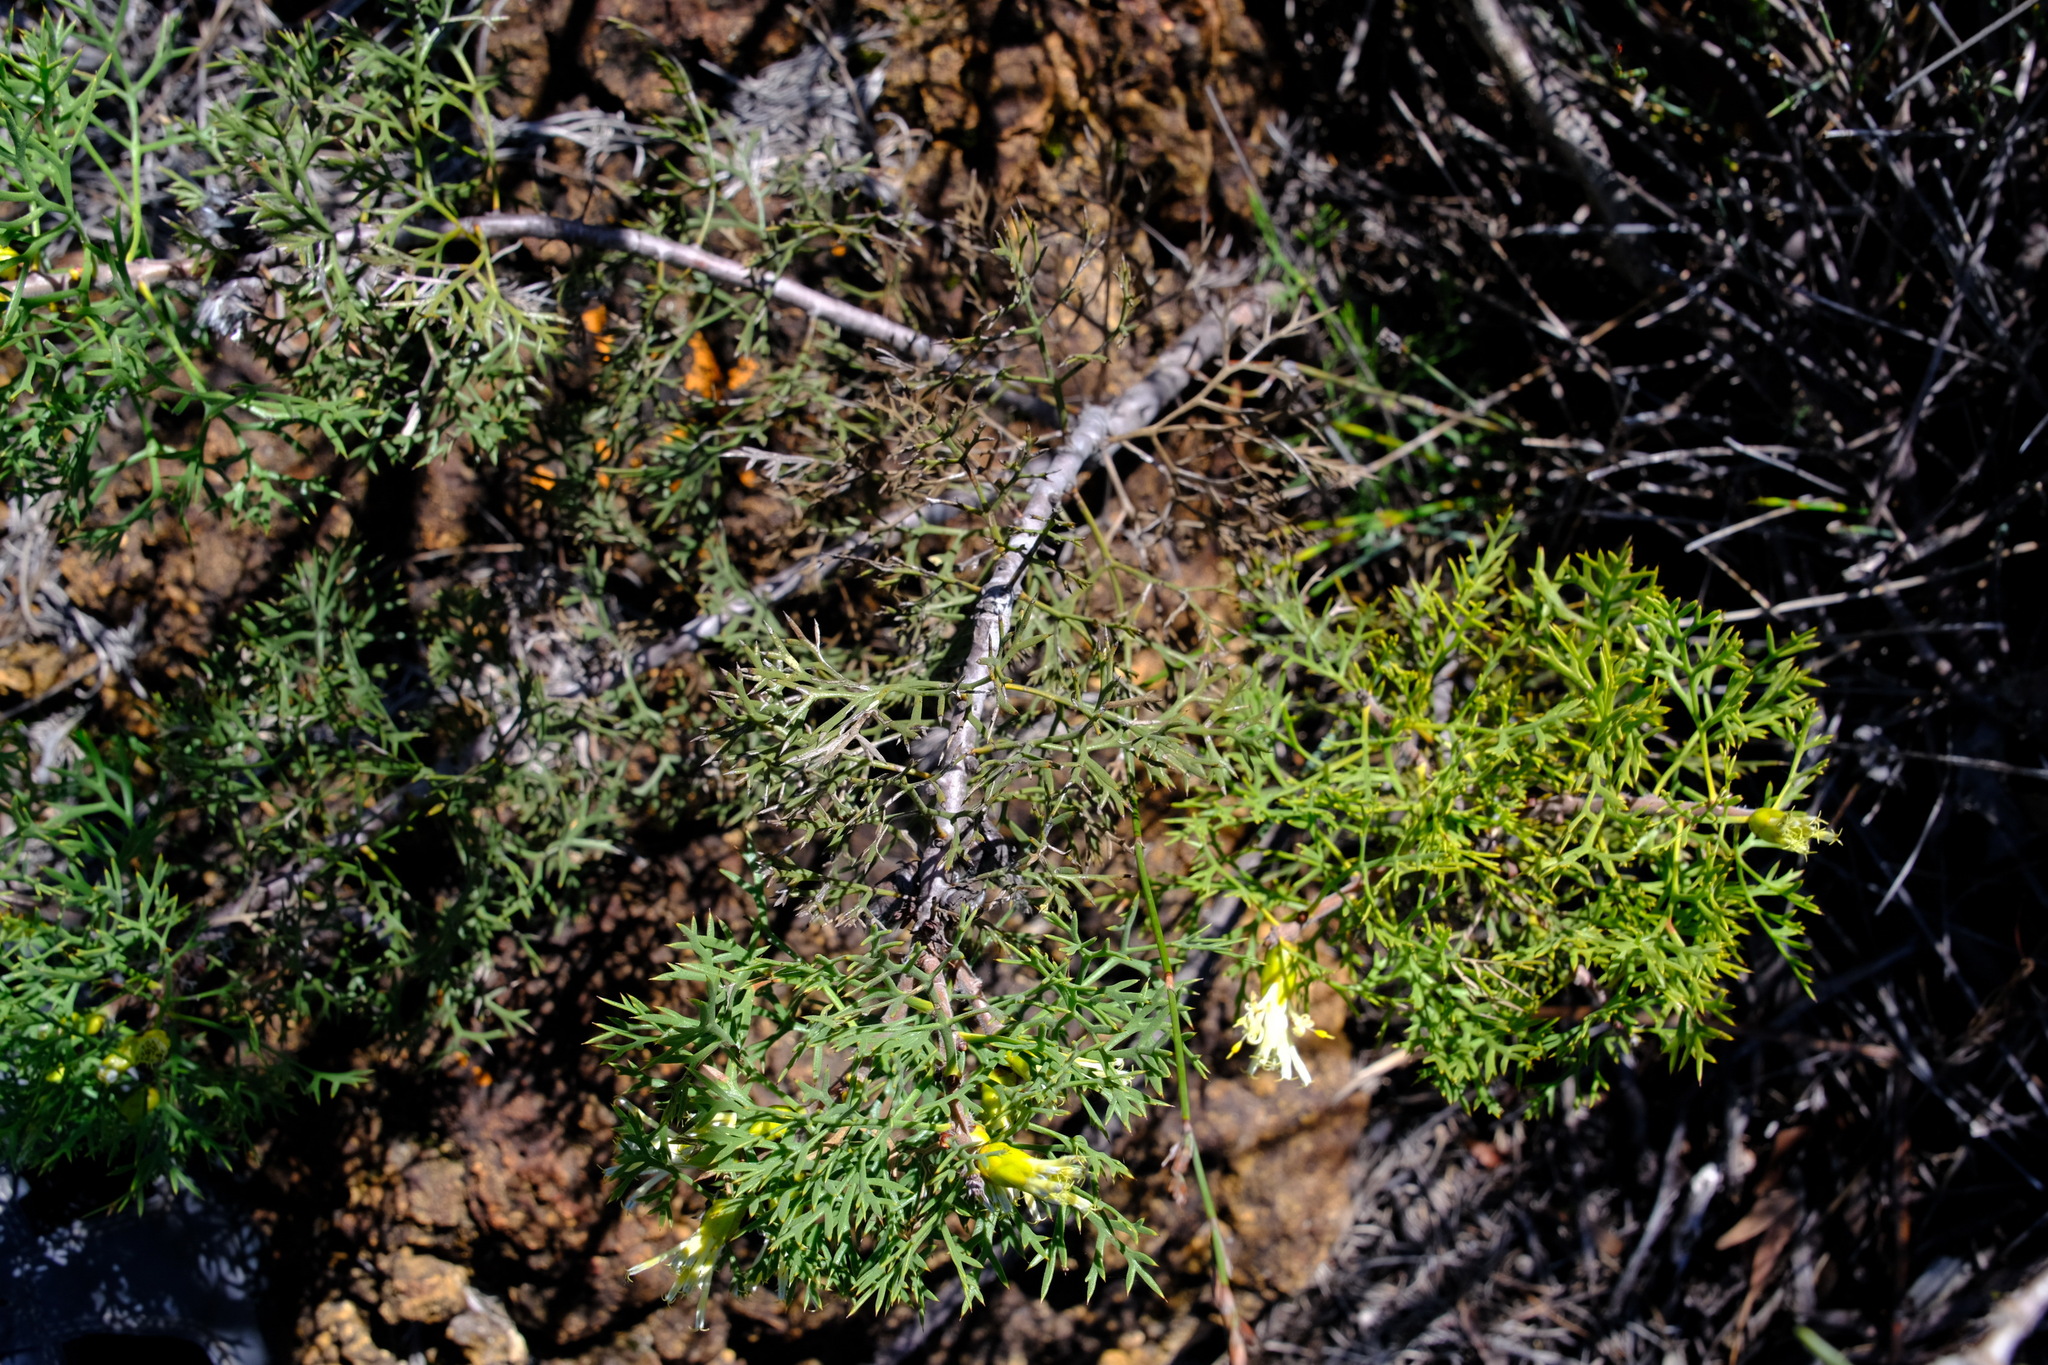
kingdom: Plantae
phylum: Tracheophyta
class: Magnoliopsida
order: Proteales
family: Proteaceae
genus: Petrophile
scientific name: Petrophile striata
